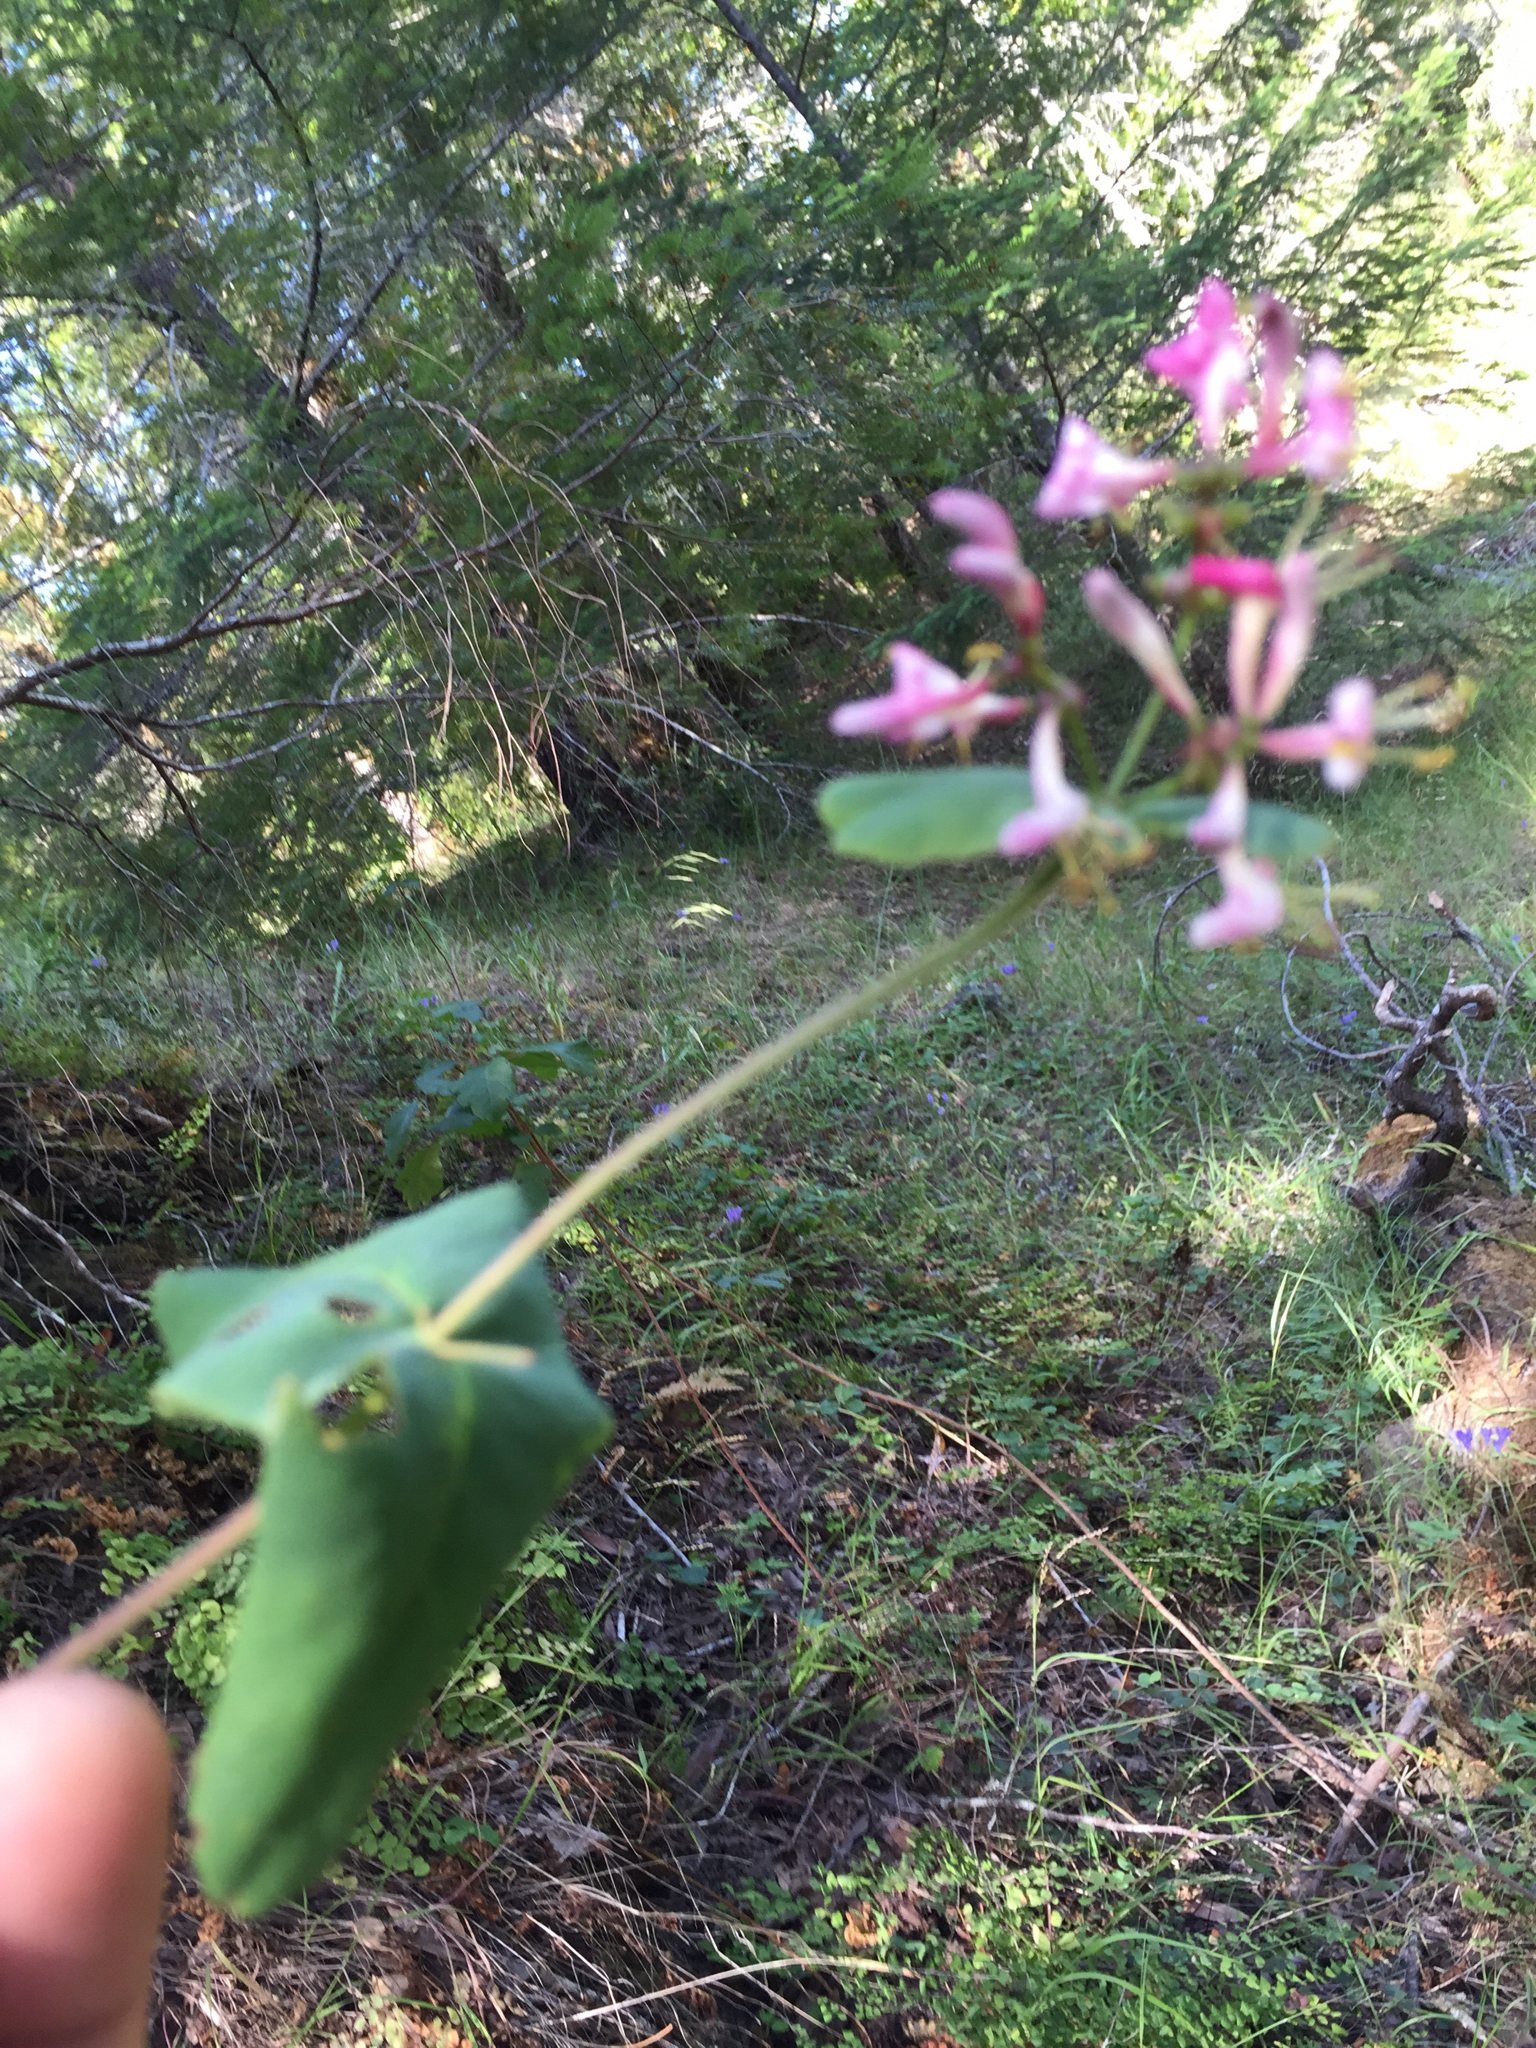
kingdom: Plantae
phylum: Tracheophyta
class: Magnoliopsida
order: Dipsacales
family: Caprifoliaceae
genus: Lonicera
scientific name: Lonicera hispidula
